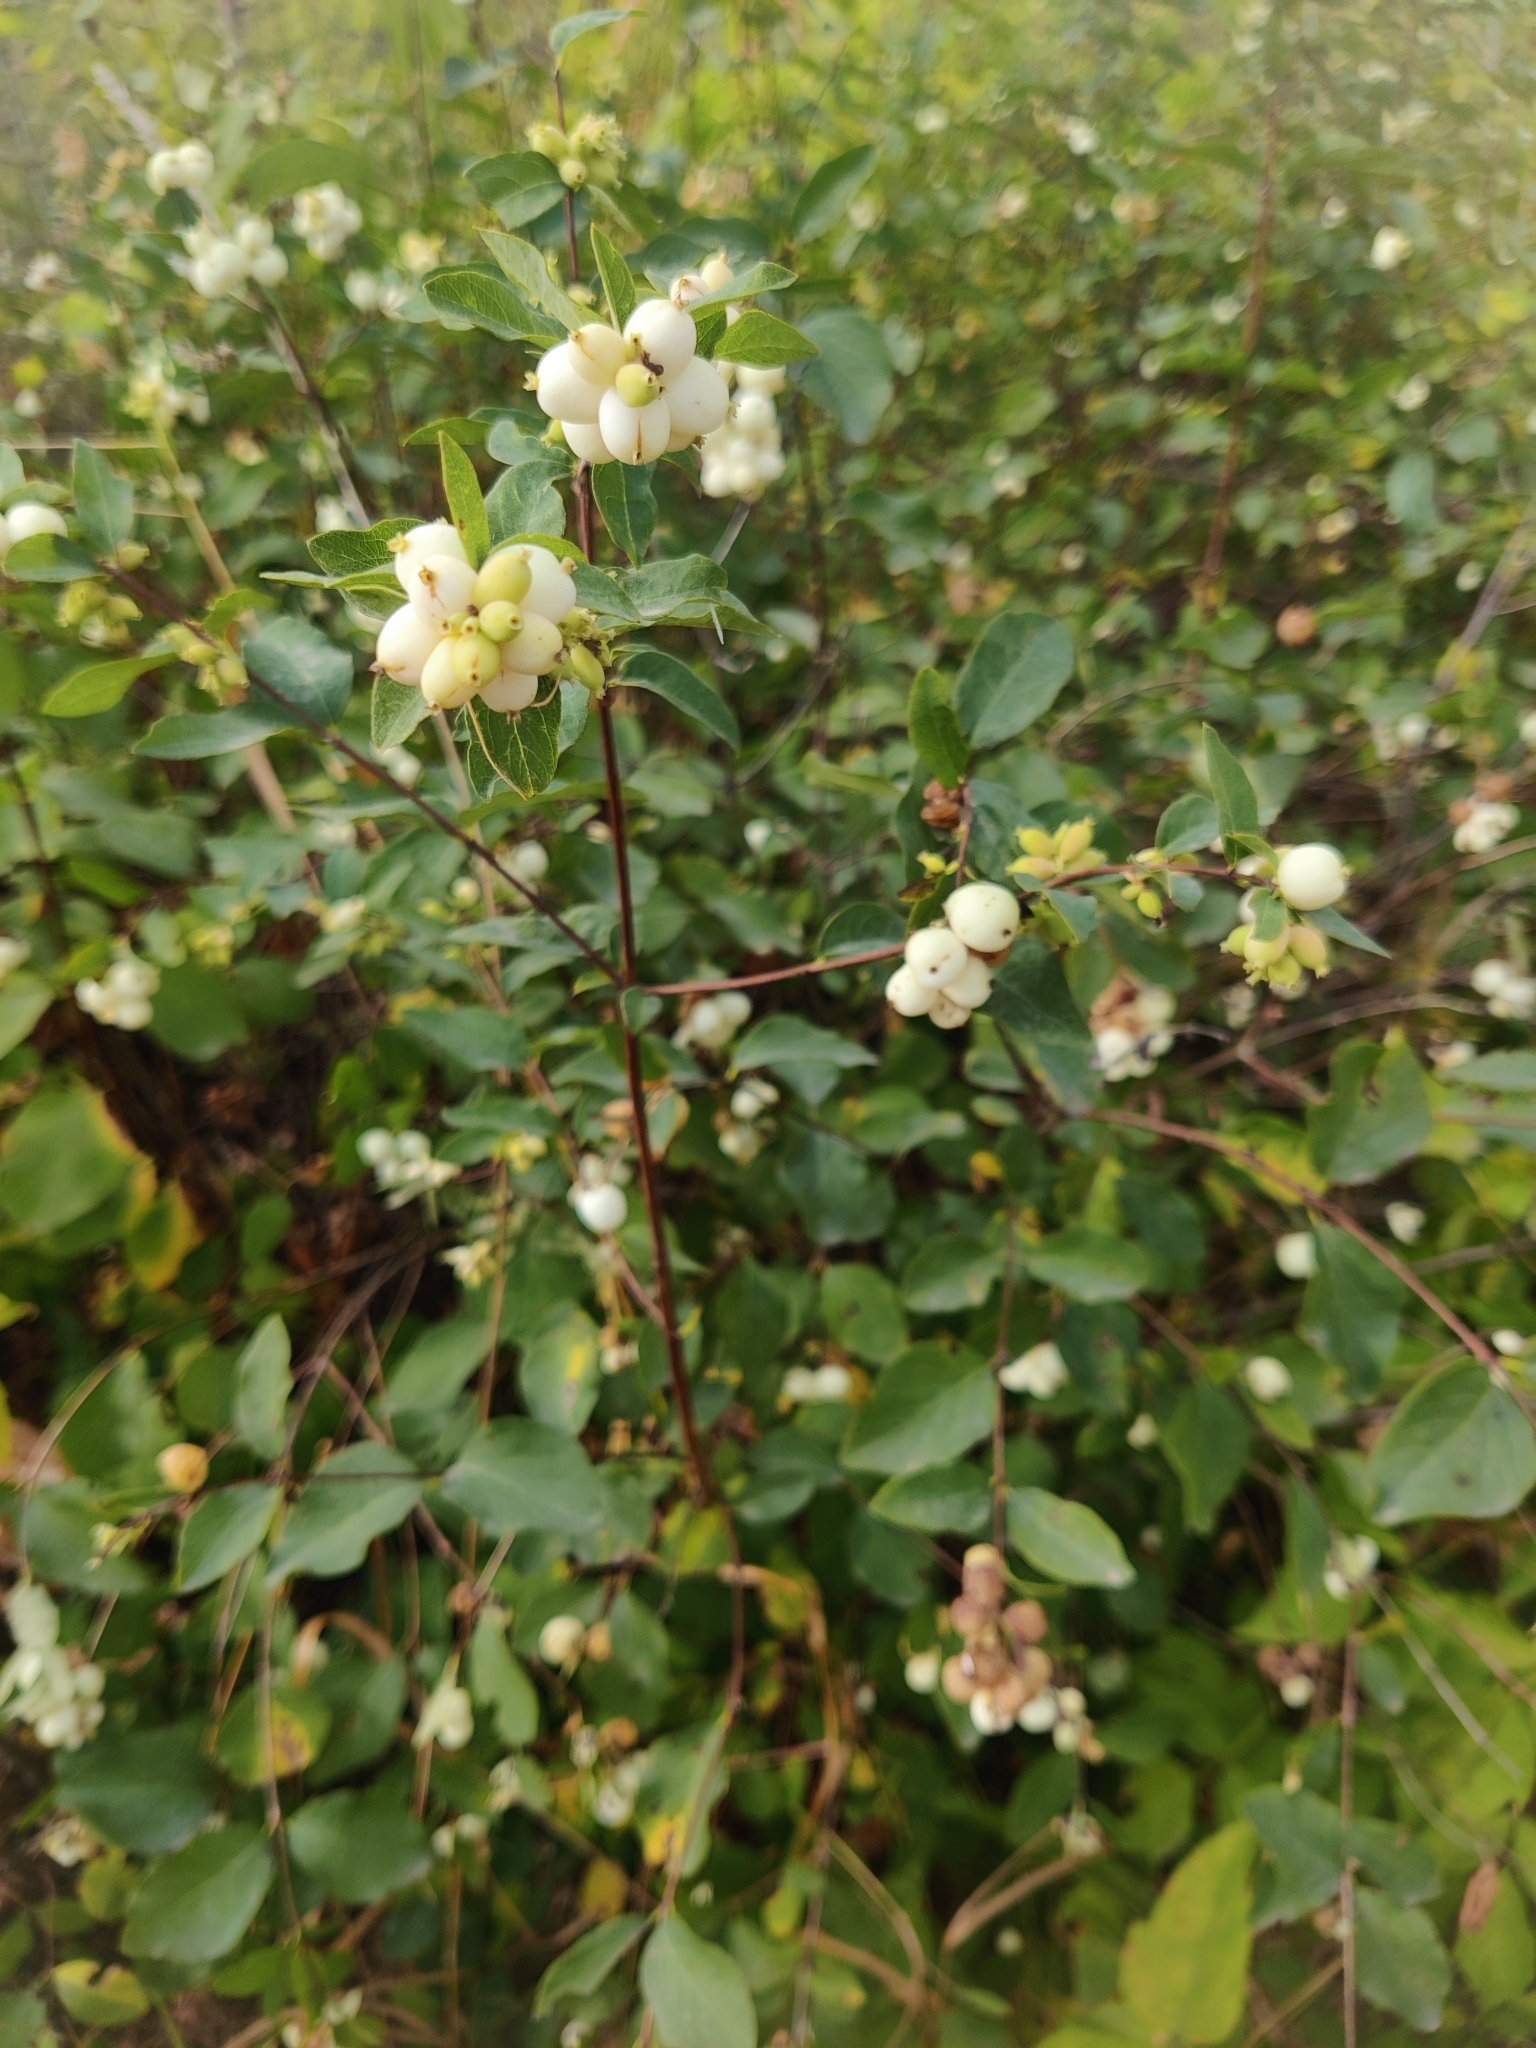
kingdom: Plantae
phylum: Tracheophyta
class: Magnoliopsida
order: Dipsacales
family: Caprifoliaceae
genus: Symphoricarpos
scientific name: Symphoricarpos albus
